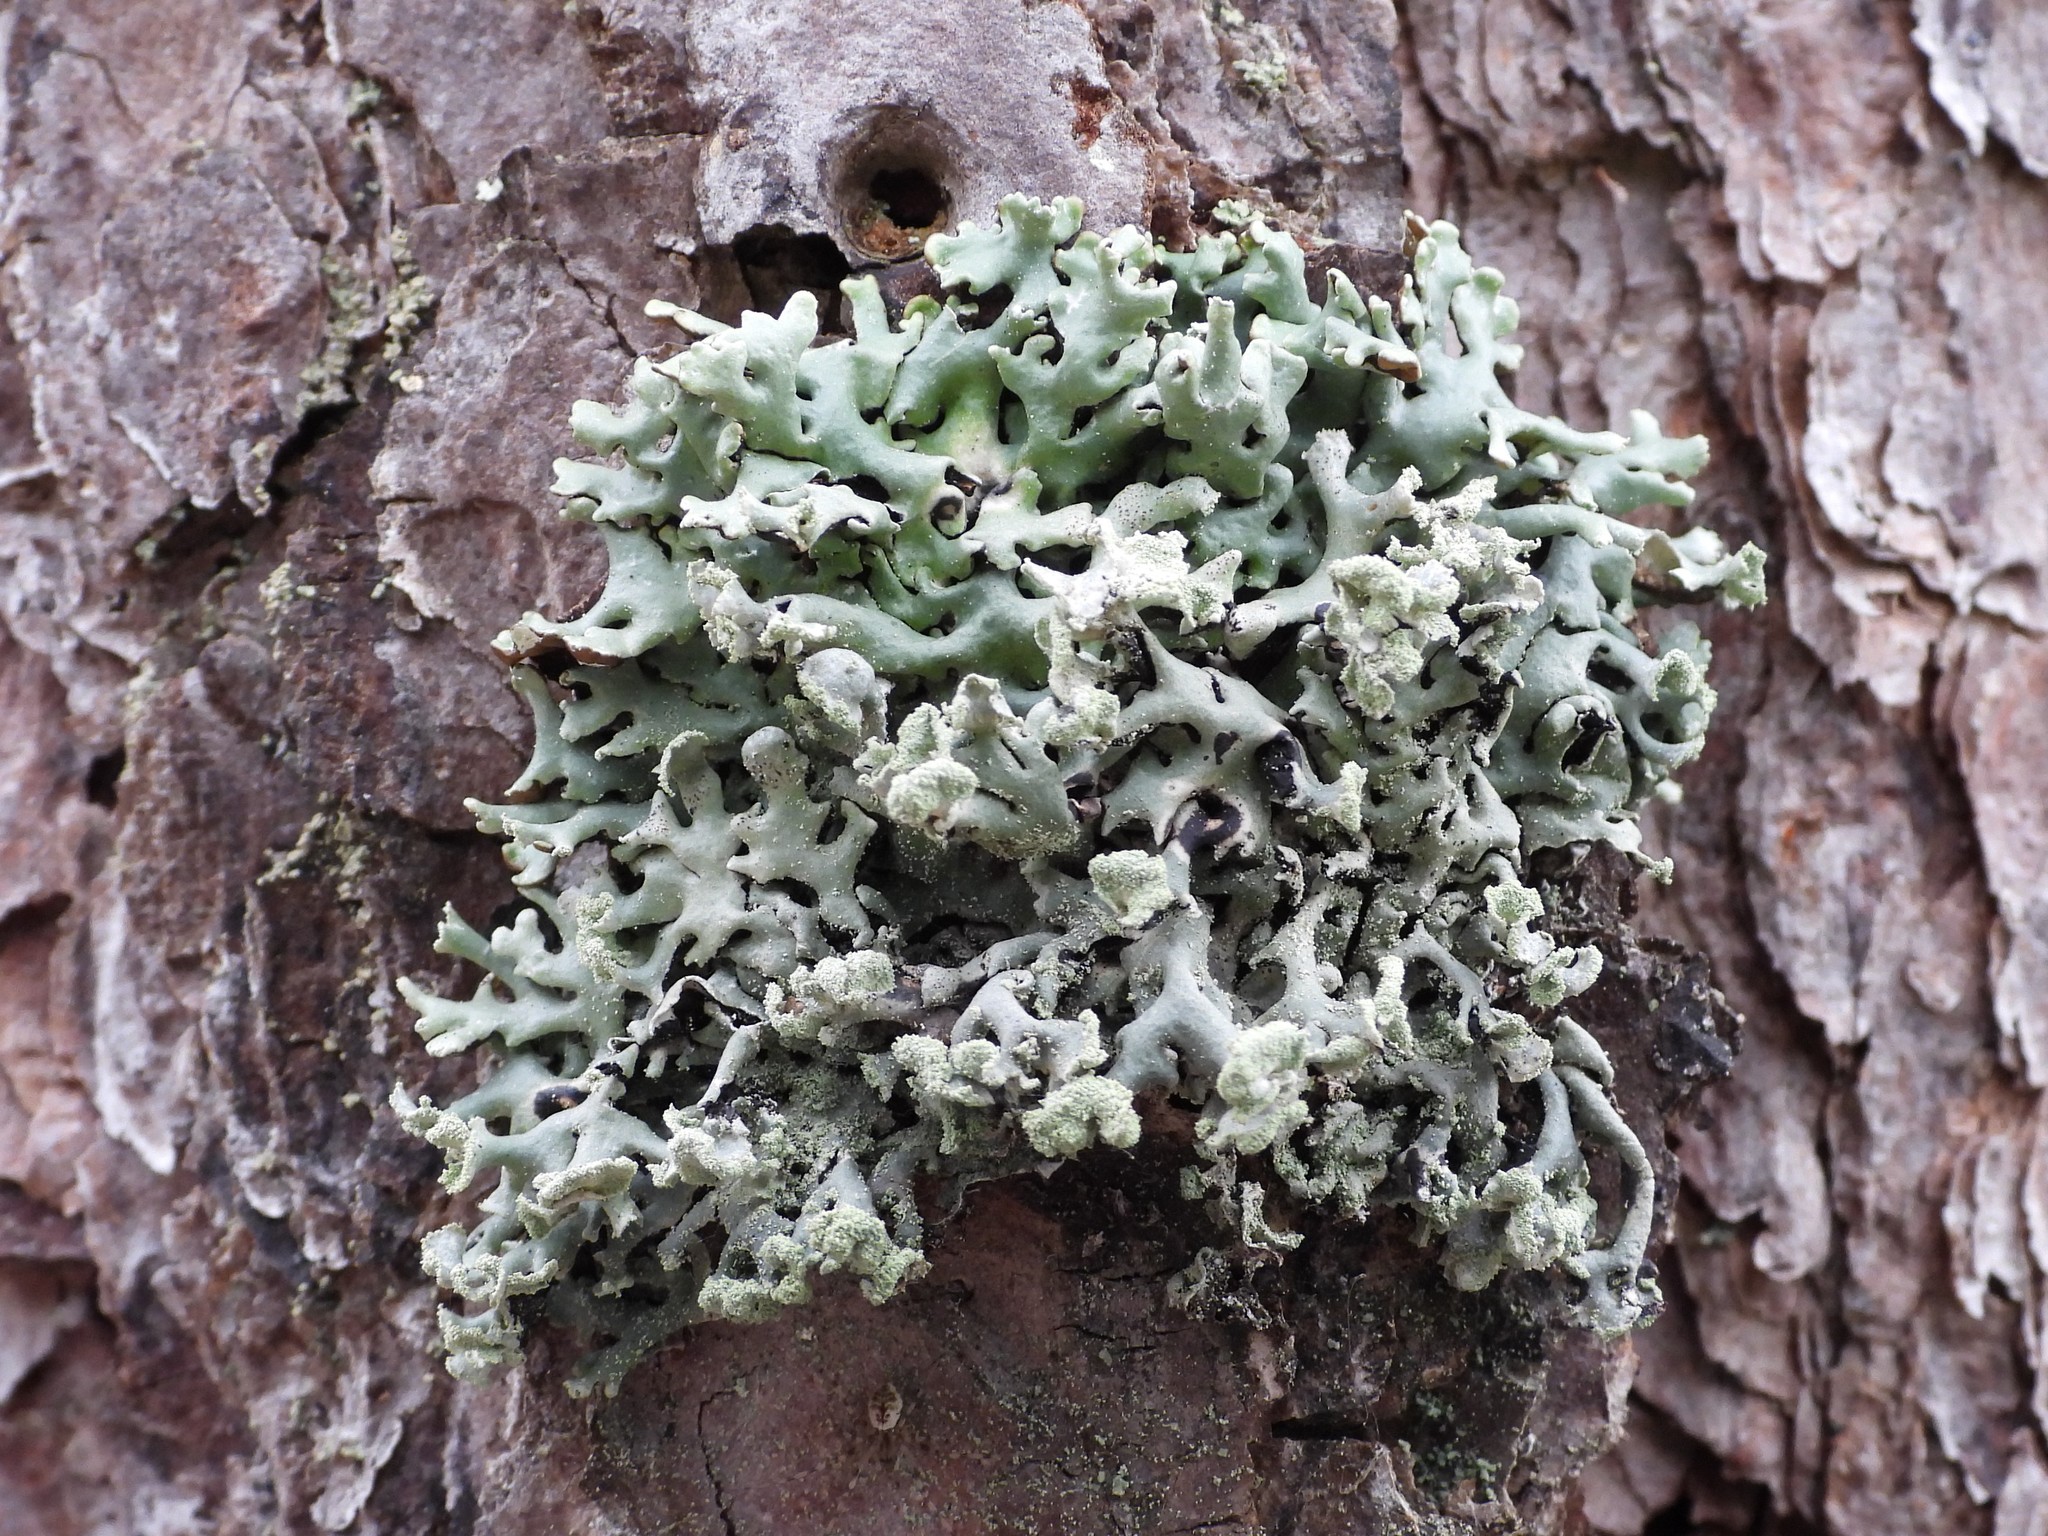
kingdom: Fungi
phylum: Ascomycota
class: Lecanoromycetes
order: Lecanorales
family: Parmeliaceae
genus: Hypogymnia
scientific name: Hypogymnia physodes
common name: Dark crottle
